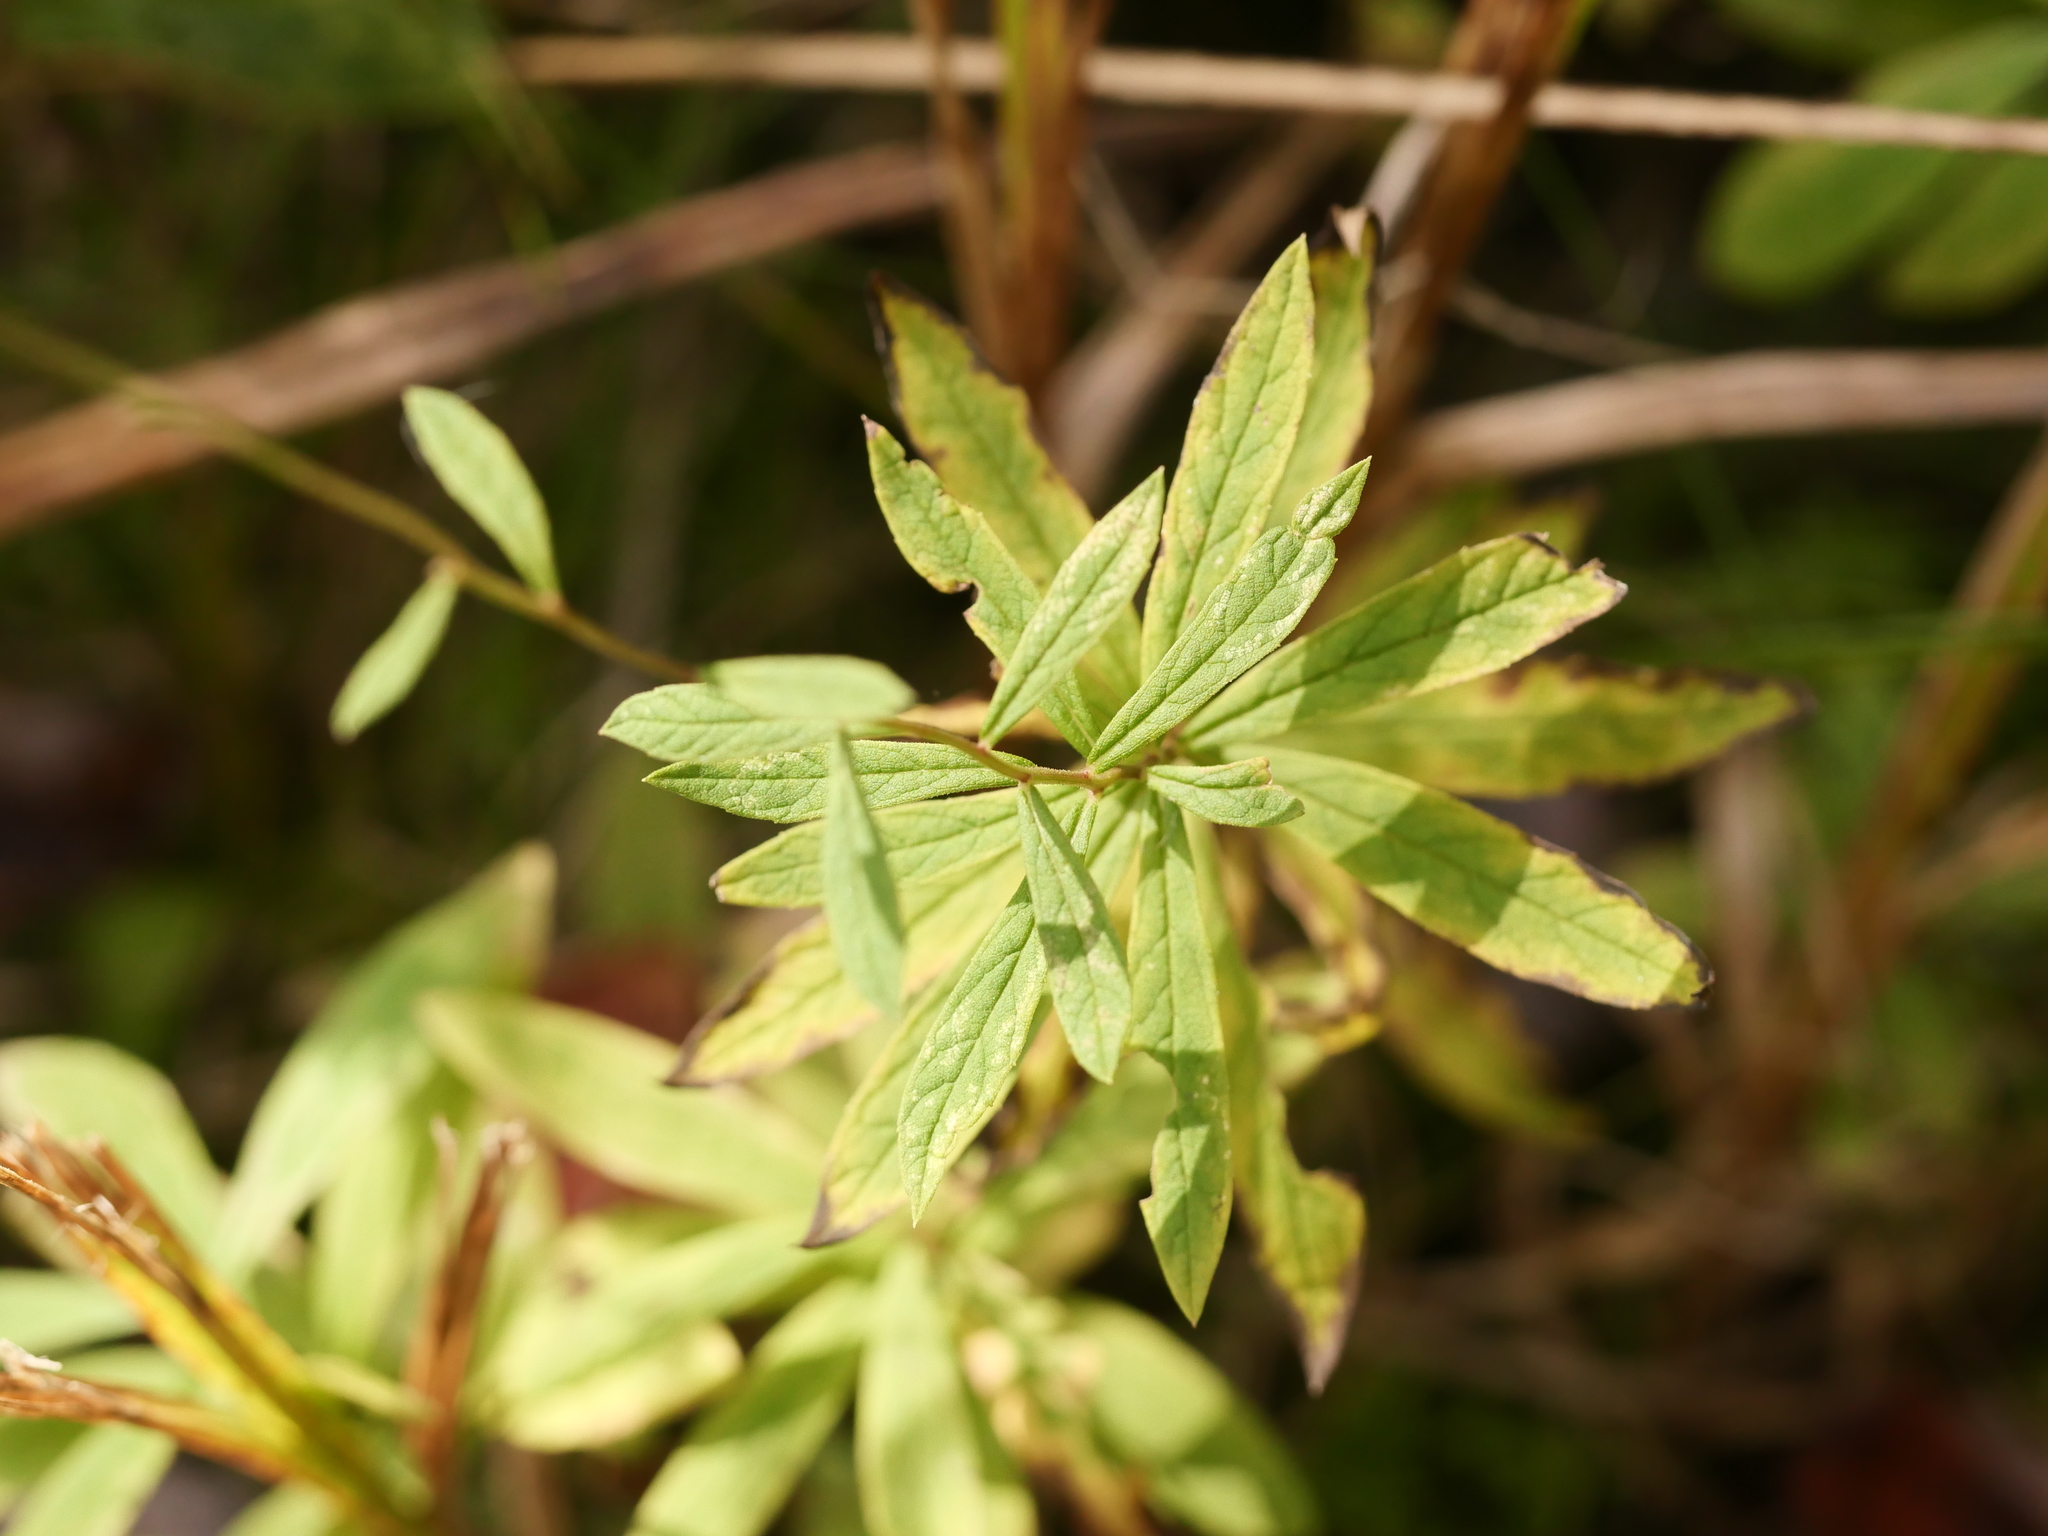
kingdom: Plantae
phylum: Tracheophyta
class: Magnoliopsida
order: Asterales
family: Asteraceae
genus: Oclemena
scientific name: Oclemena nemoralis
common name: Bog aster
